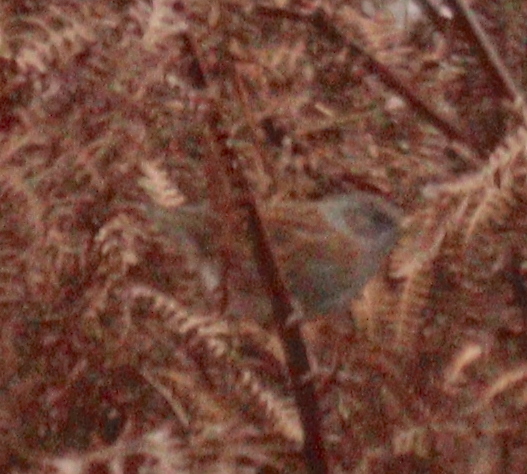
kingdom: Animalia
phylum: Chordata
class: Aves
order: Passeriformes
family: Prunellidae
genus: Prunella
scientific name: Prunella modularis
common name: Dunnock
